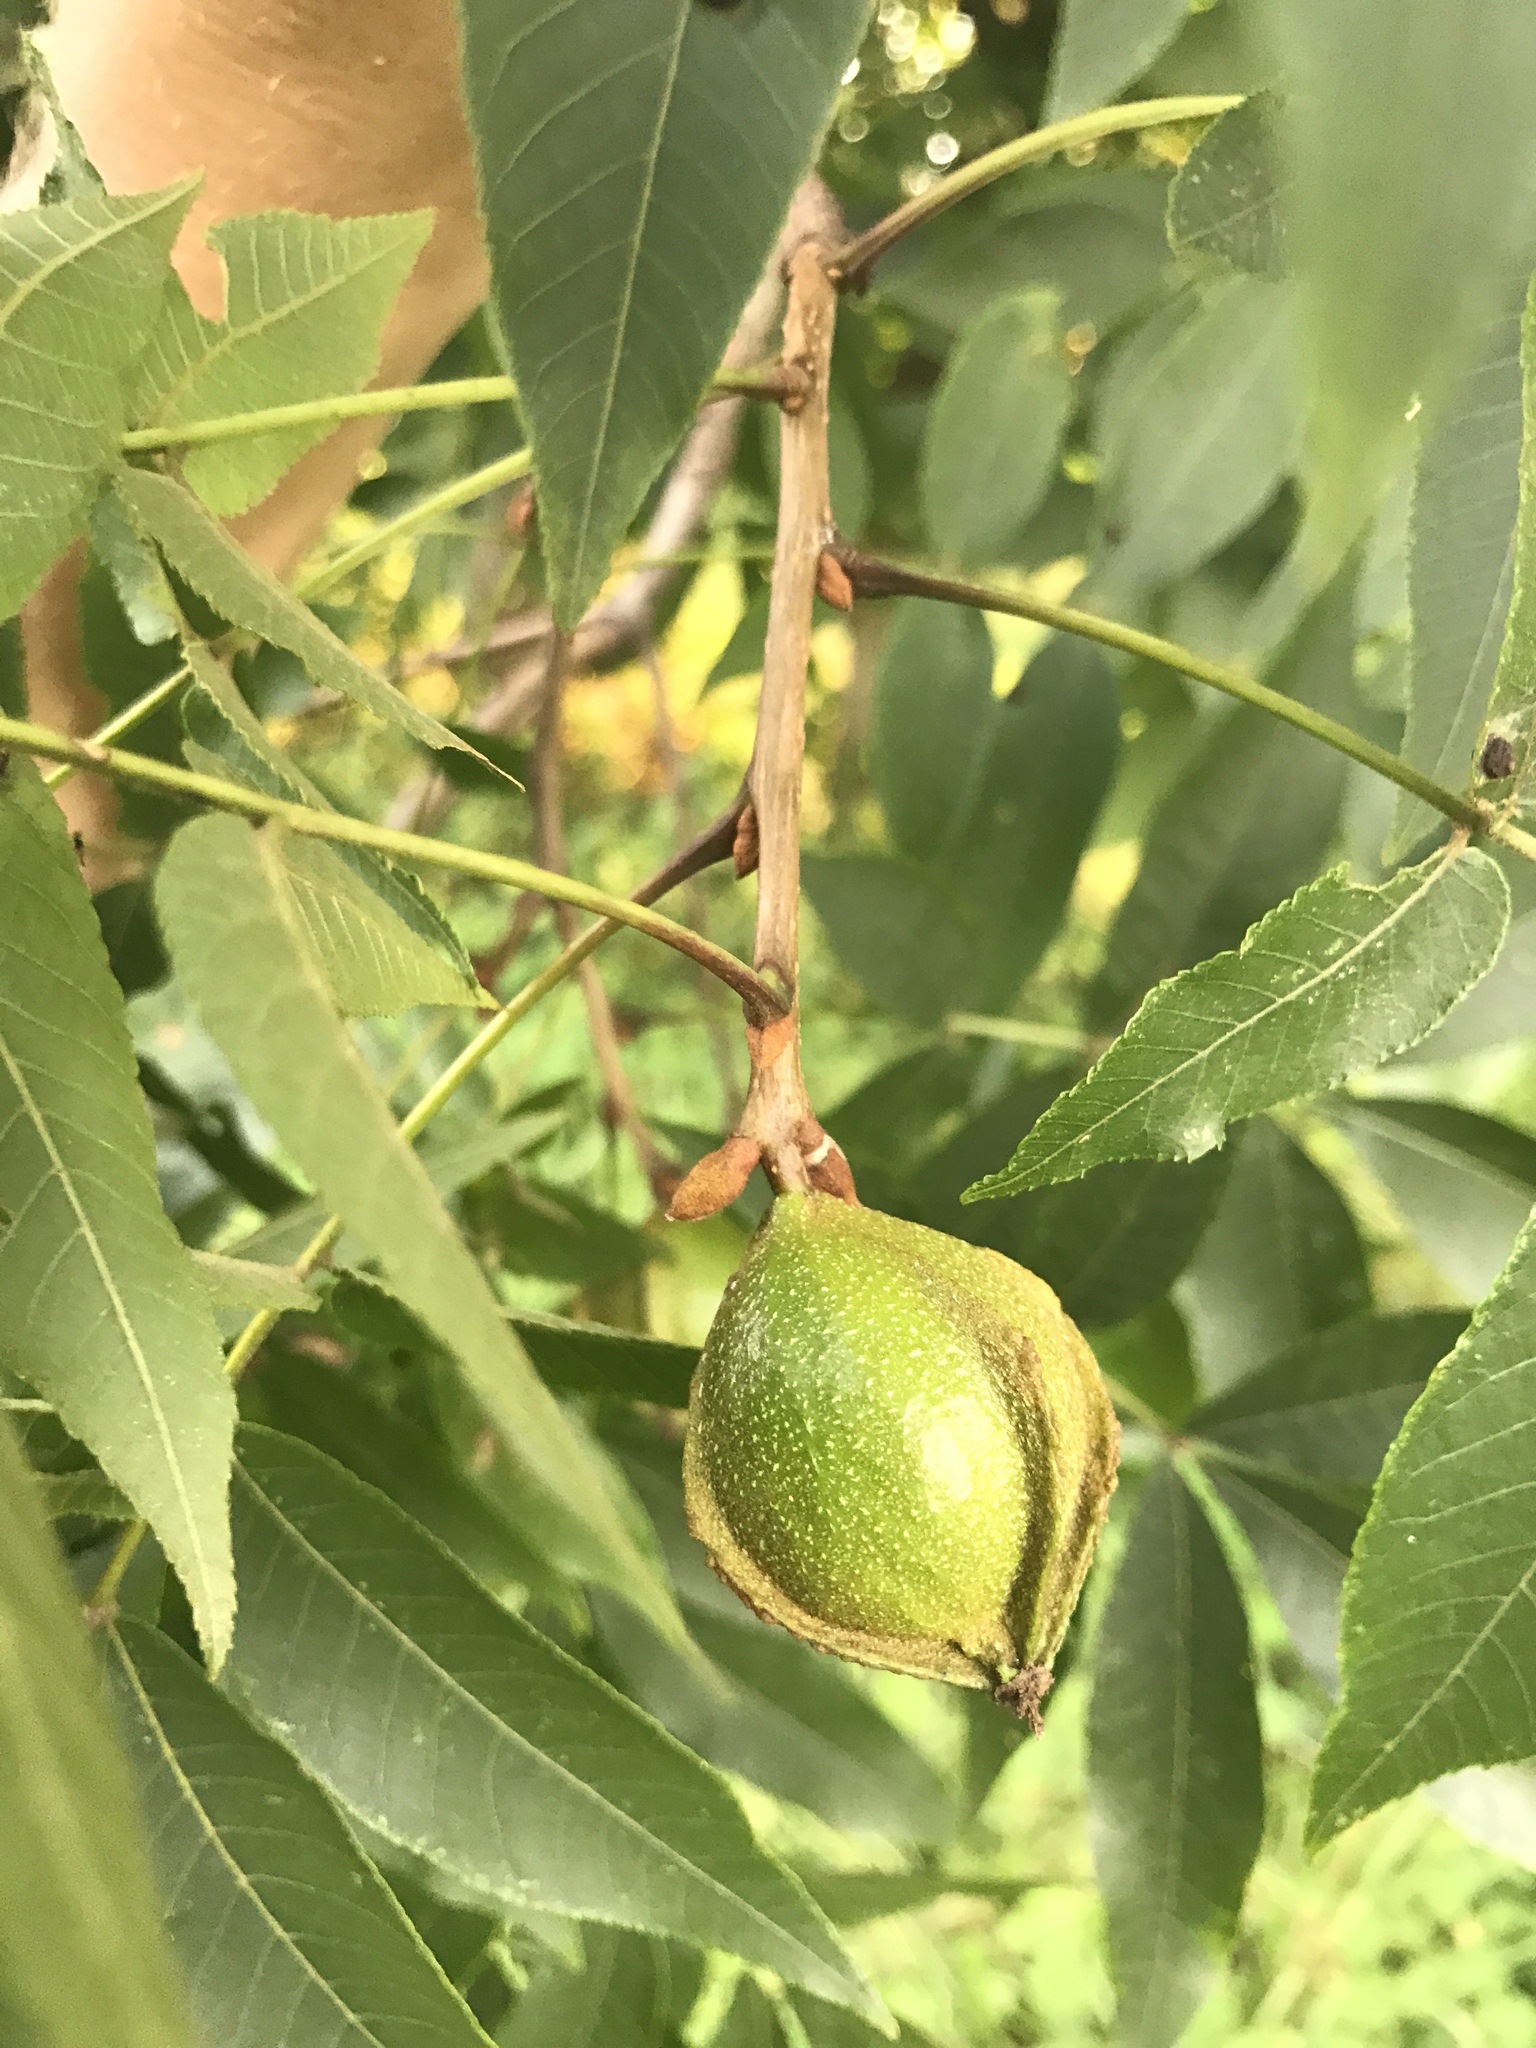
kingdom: Plantae
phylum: Tracheophyta
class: Magnoliopsida
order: Fagales
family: Juglandaceae
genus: Carya
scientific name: Carya cordiformis
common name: Bitternut hickory
